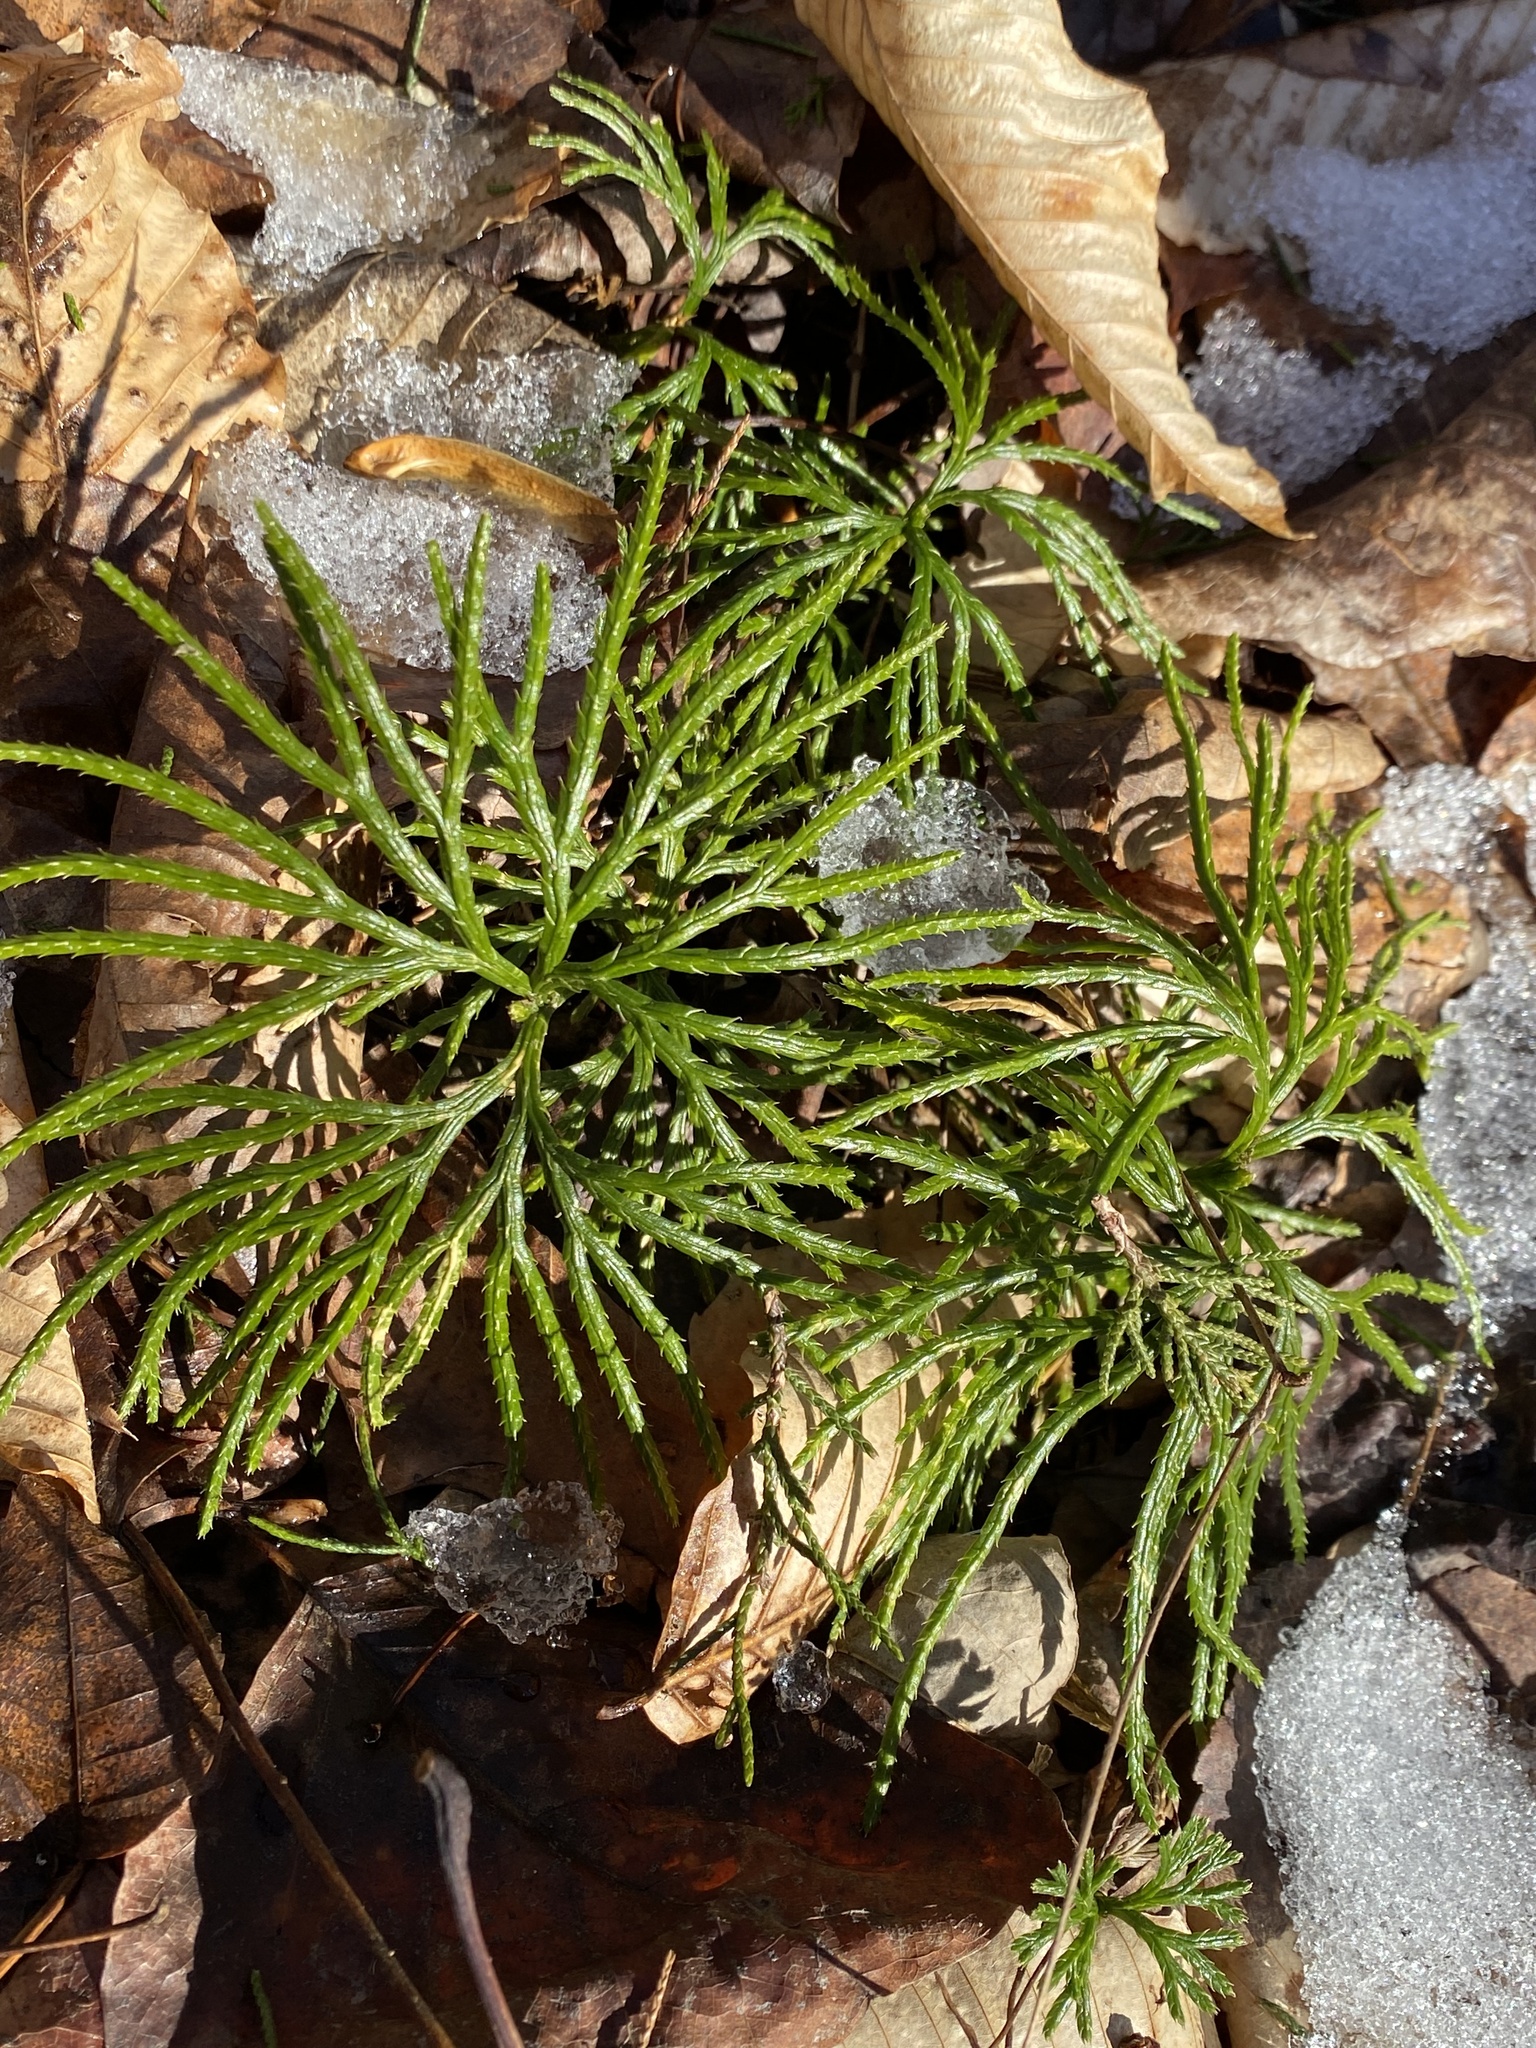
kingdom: Plantae
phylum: Tracheophyta
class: Lycopodiopsida
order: Lycopodiales
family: Lycopodiaceae
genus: Diphasiastrum
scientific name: Diphasiastrum digitatum
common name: Southern running-pine
